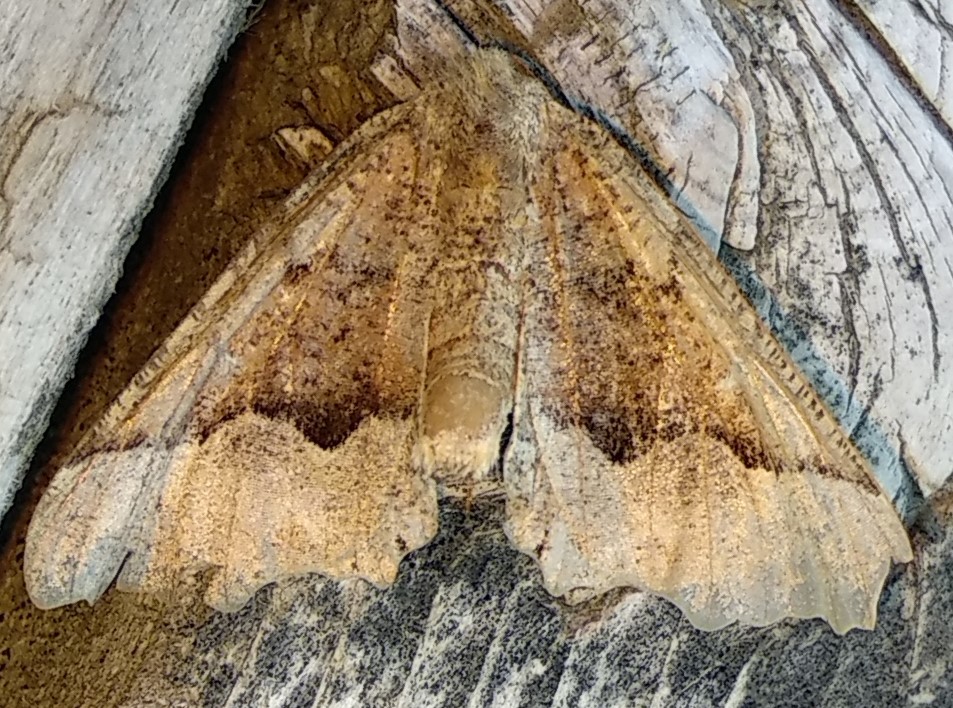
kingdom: Animalia
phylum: Arthropoda
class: Insecta
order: Lepidoptera
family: Geometridae
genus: Pero
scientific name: Pero morrisonaria
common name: Morrison's pero
